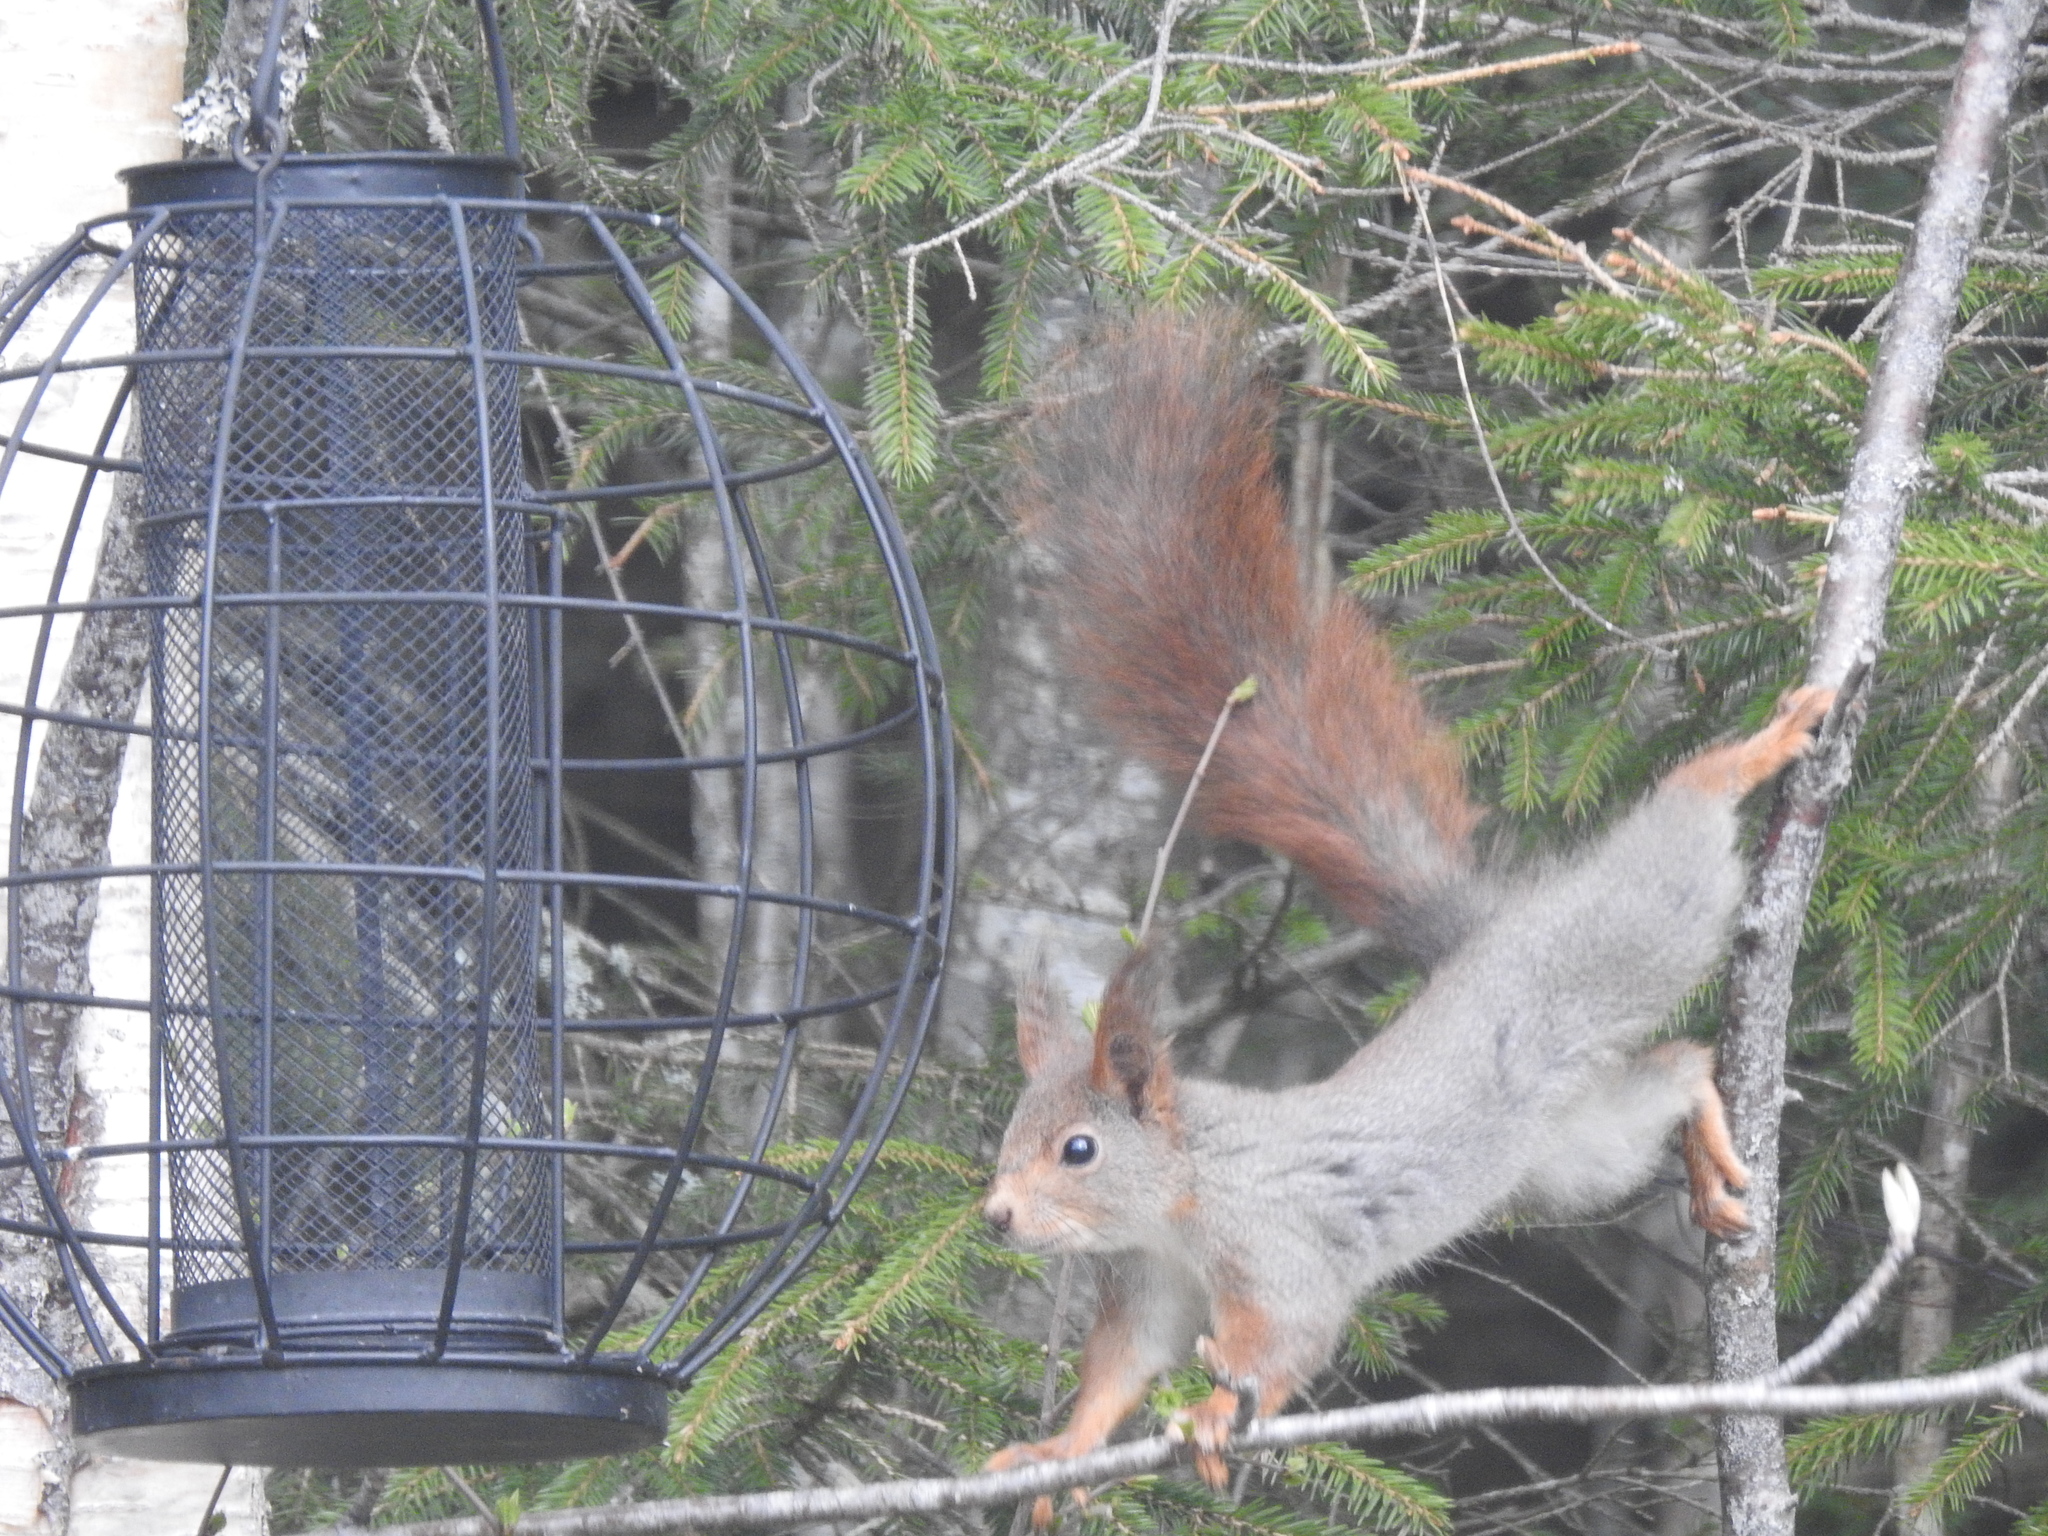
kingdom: Animalia
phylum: Chordata
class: Mammalia
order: Rodentia
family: Sciuridae
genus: Sciurus
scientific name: Sciurus vulgaris
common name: Eurasian red squirrel
